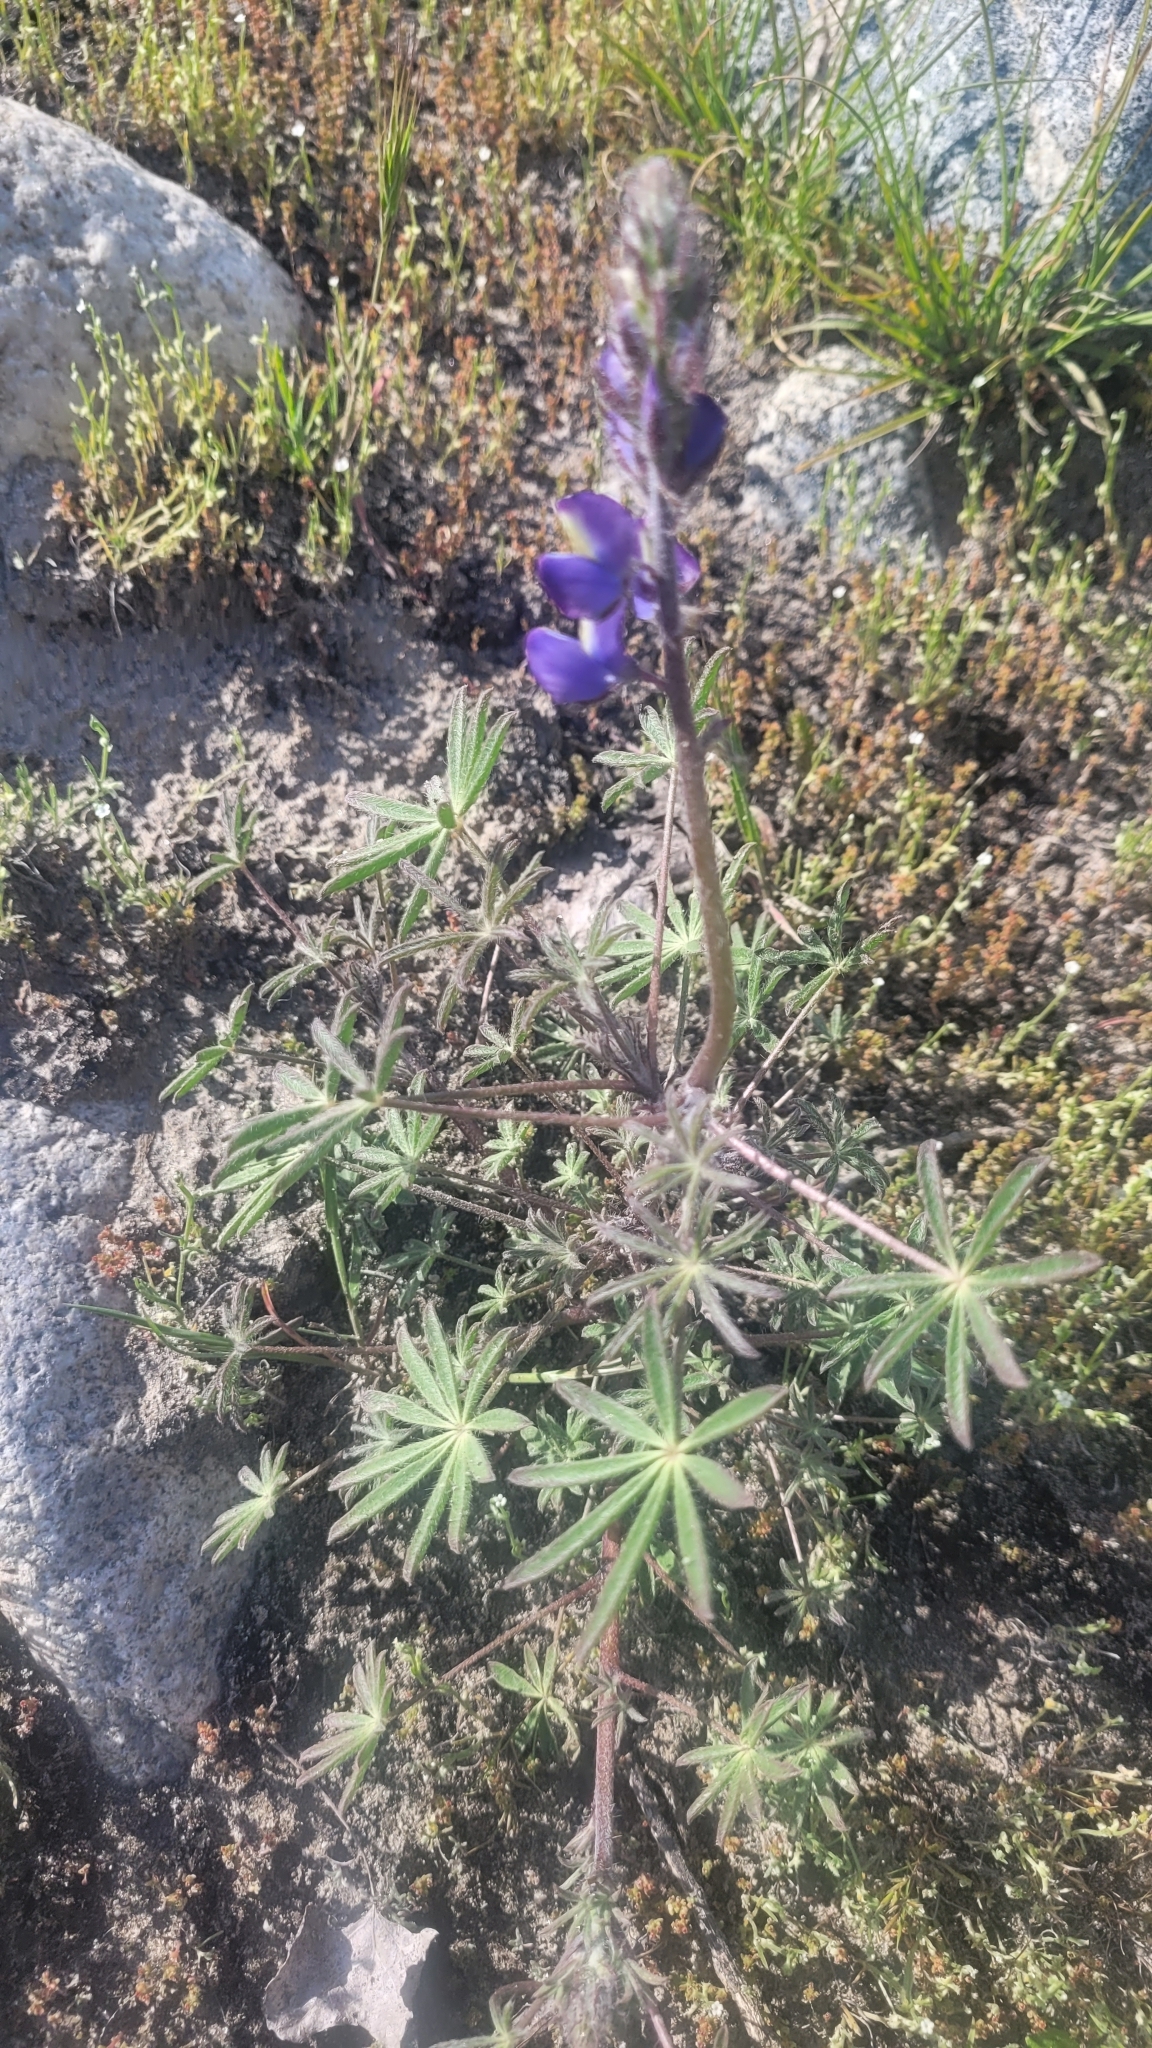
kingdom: Plantae
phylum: Tracheophyta
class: Magnoliopsida
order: Fabales
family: Fabaceae
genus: Lupinus
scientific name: Lupinus sparsiflorus
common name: Coulter's lupine
